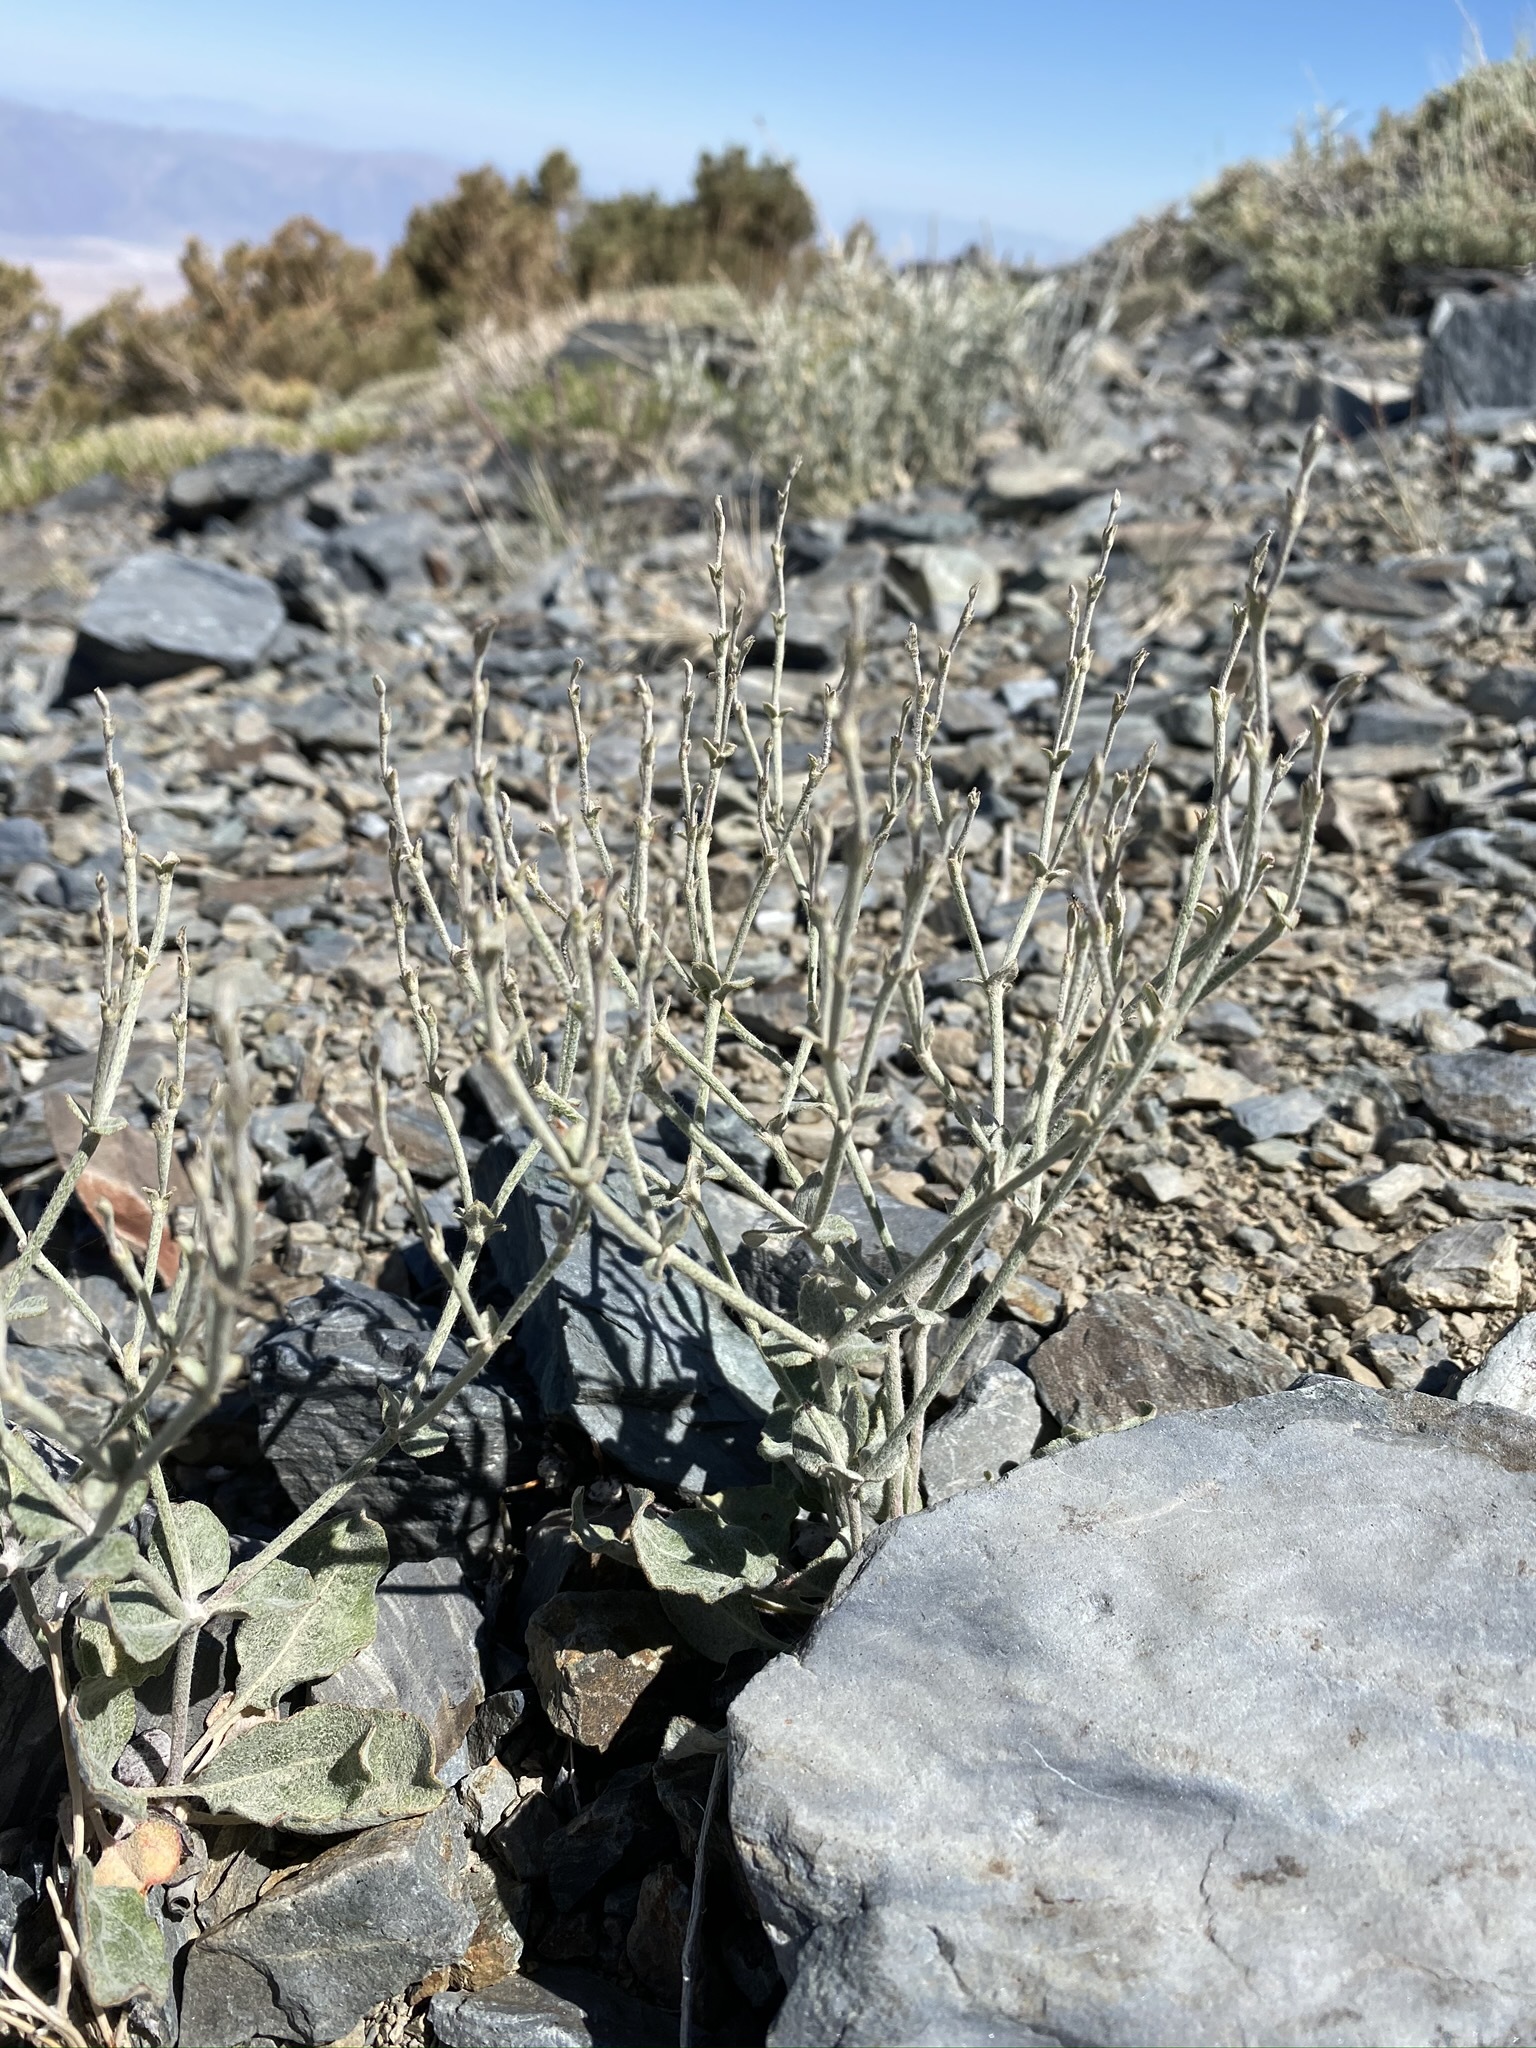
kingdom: Plantae
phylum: Tracheophyta
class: Magnoliopsida
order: Caryophyllales
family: Polygonaceae
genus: Eriogonum
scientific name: Eriogonum panamintense
